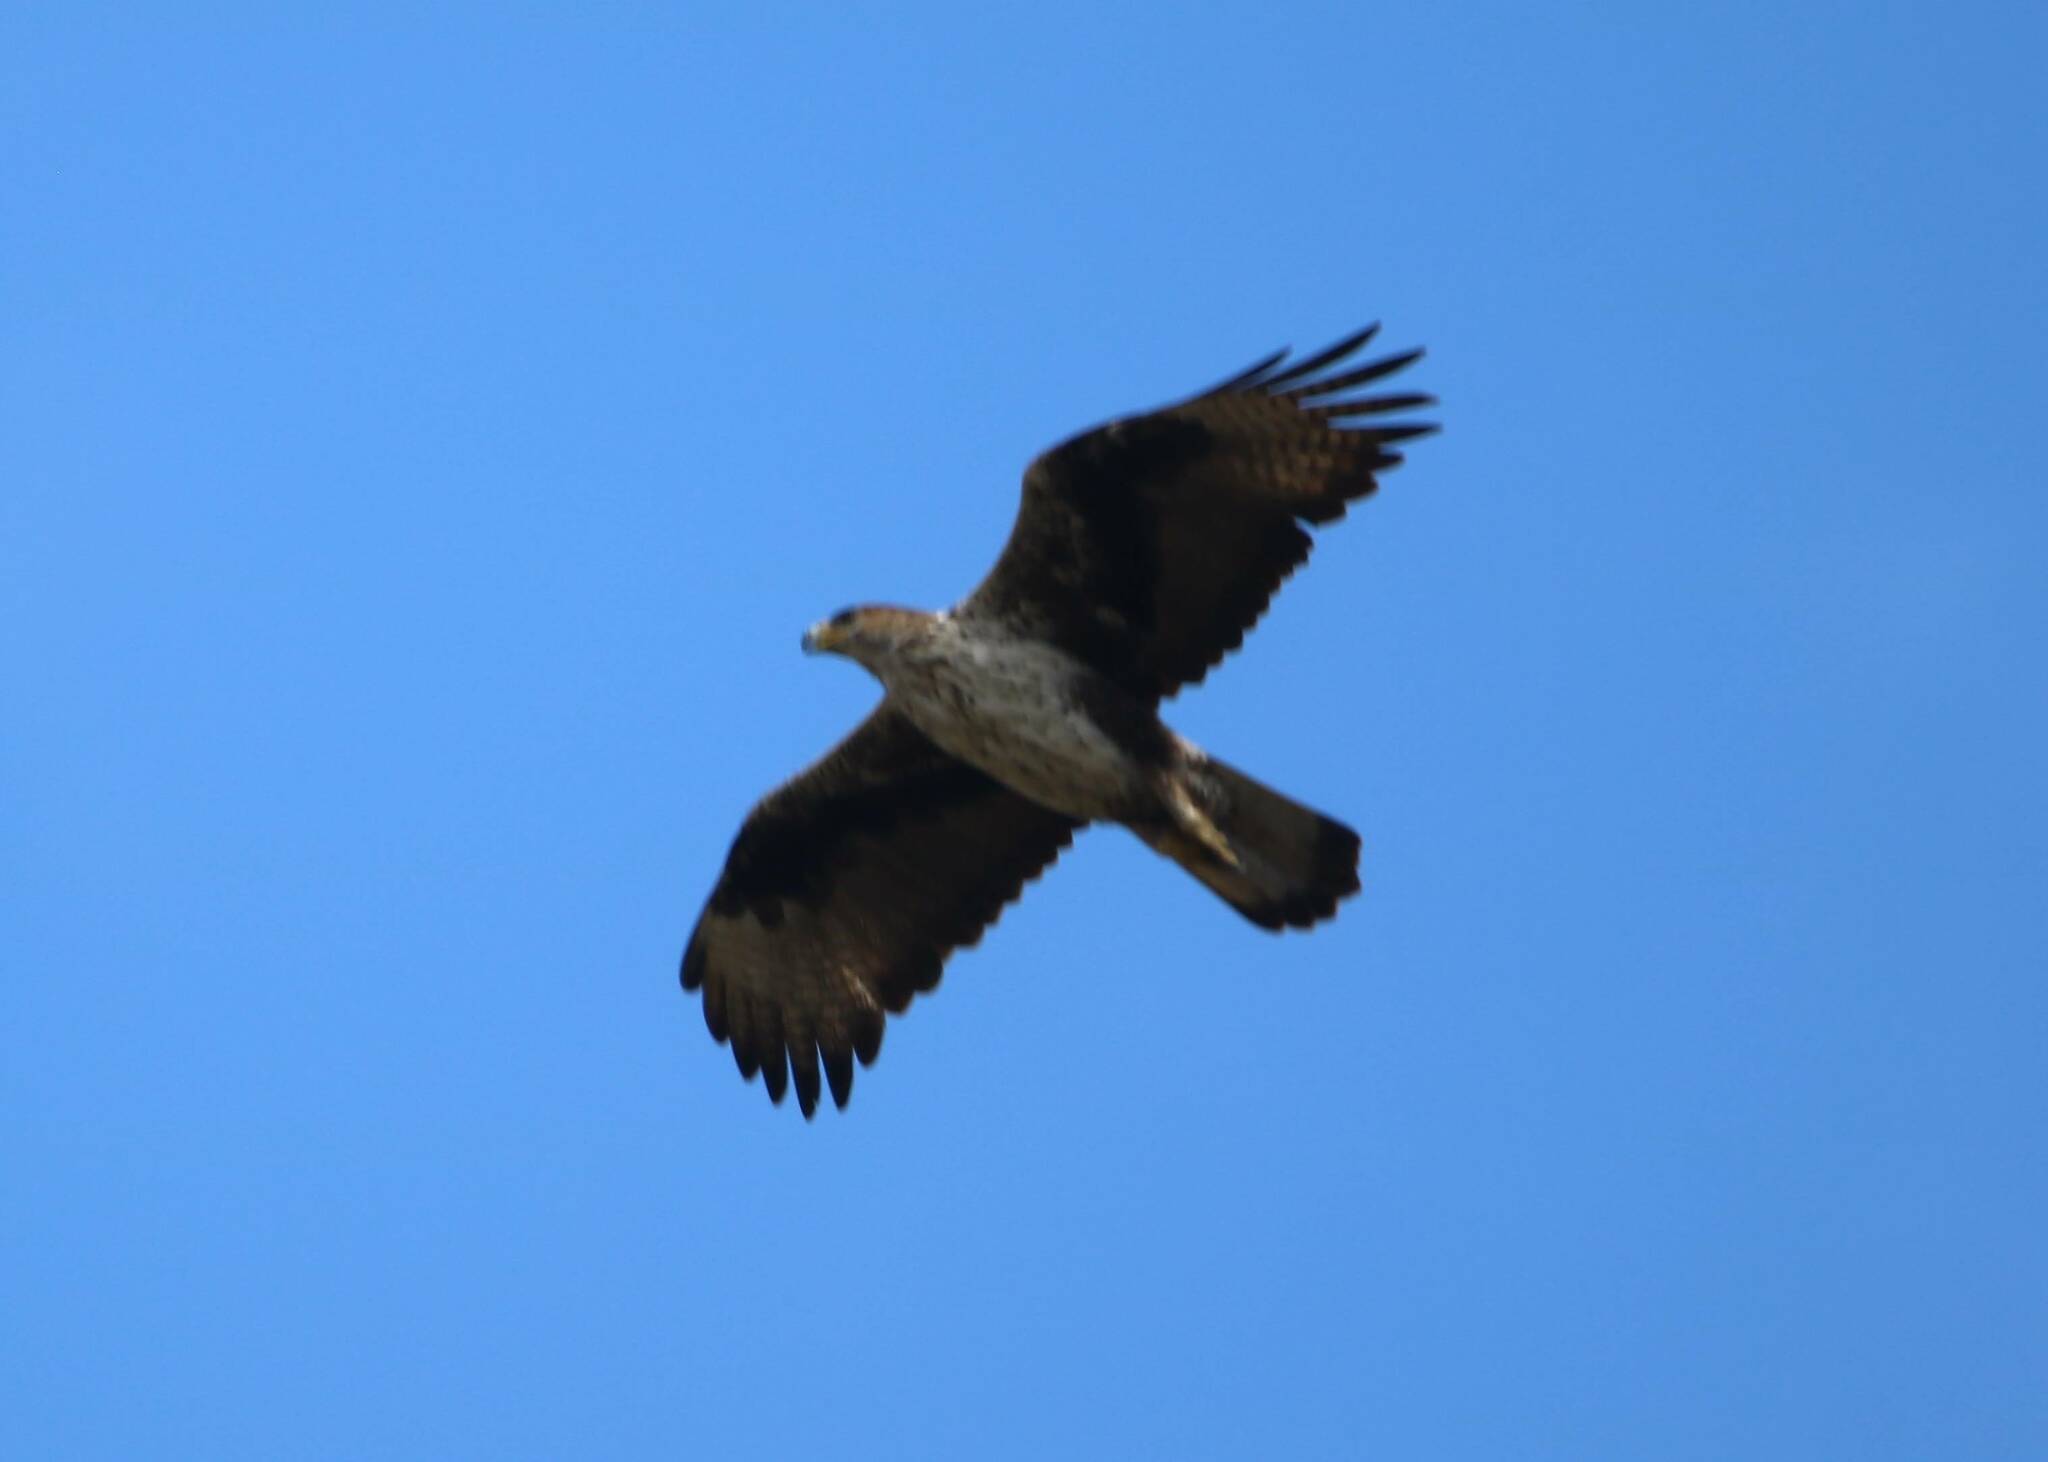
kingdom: Animalia
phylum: Chordata
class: Aves
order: Accipitriformes
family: Accipitridae
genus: Aquila
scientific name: Aquila fasciata
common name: Bonelli's eagle
